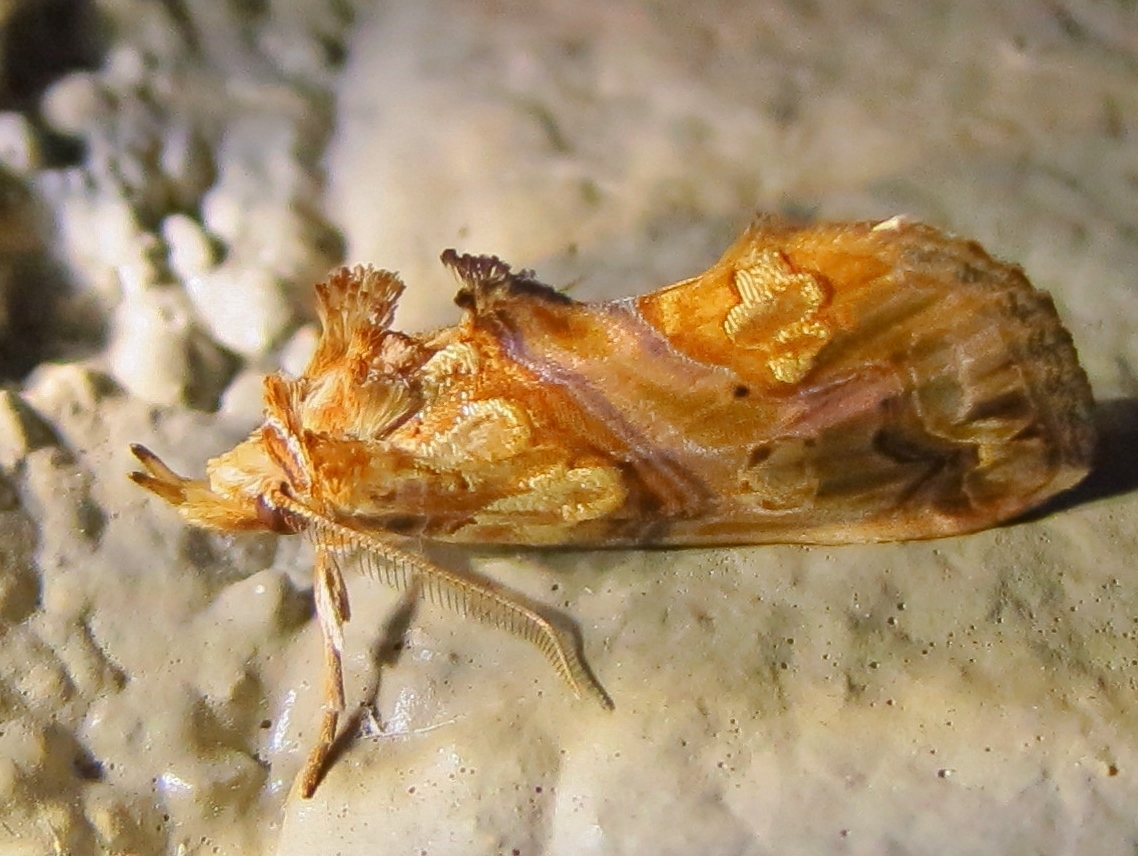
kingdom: Animalia
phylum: Arthropoda
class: Insecta
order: Lepidoptera
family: Erebidae
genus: Plusiodonta
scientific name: Plusiodonta compressipalpis
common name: Moonseed moth
